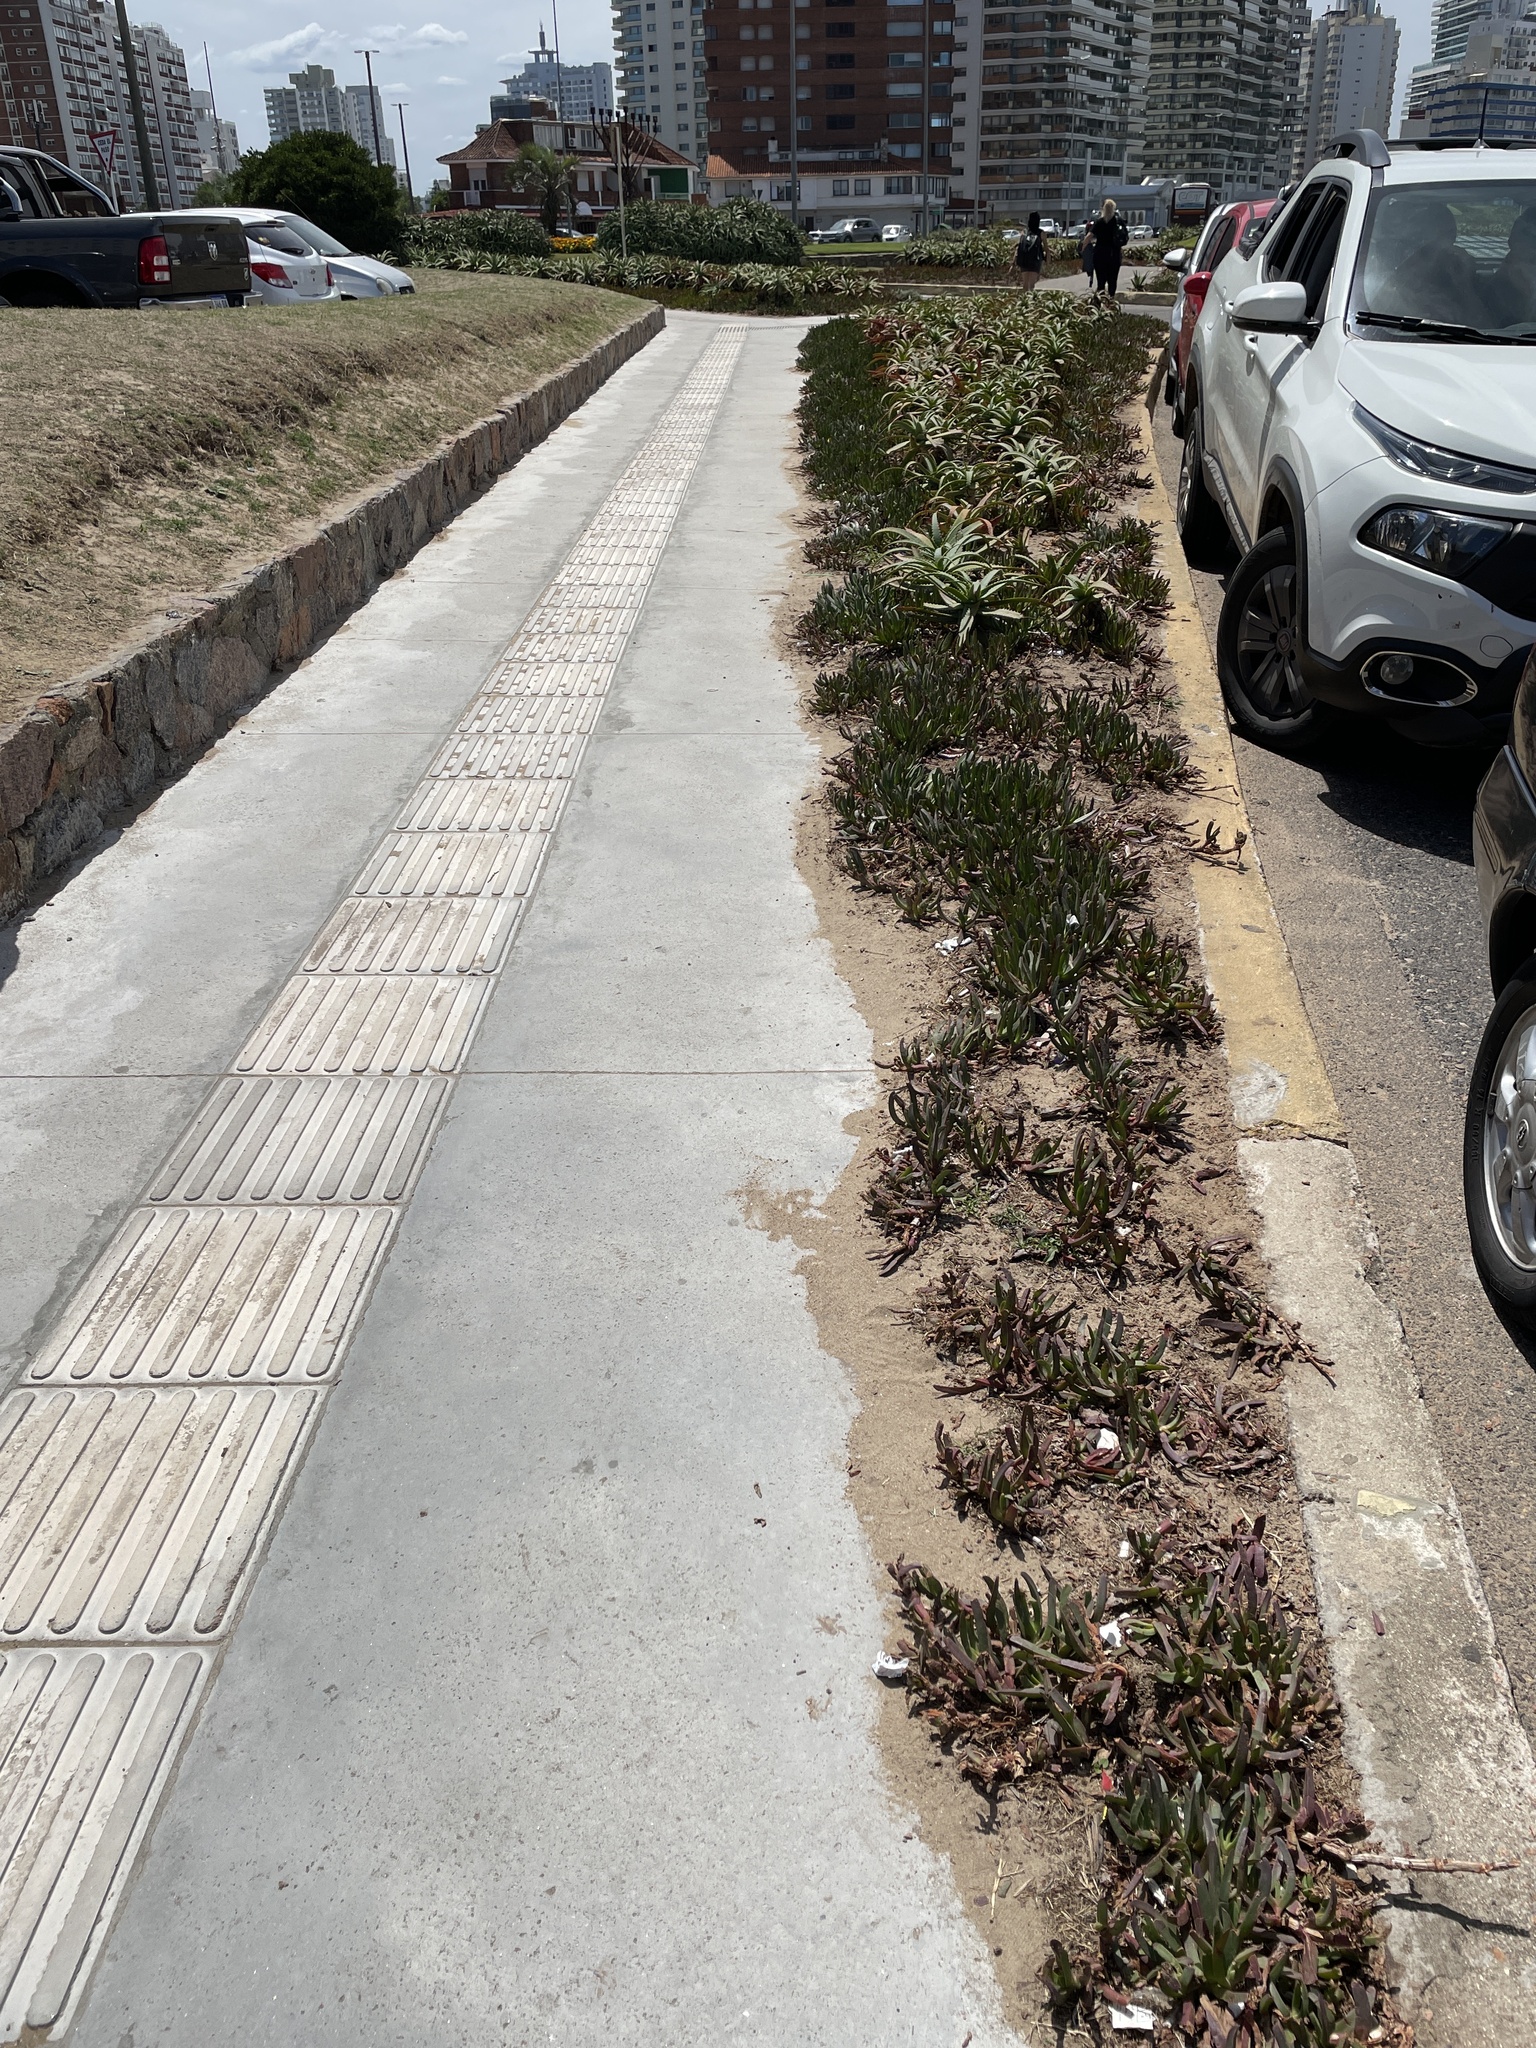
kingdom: Plantae
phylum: Tracheophyta
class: Magnoliopsida
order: Caryophyllales
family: Aizoaceae
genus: Carpobrotus
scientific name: Carpobrotus edulis
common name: Hottentot-fig
